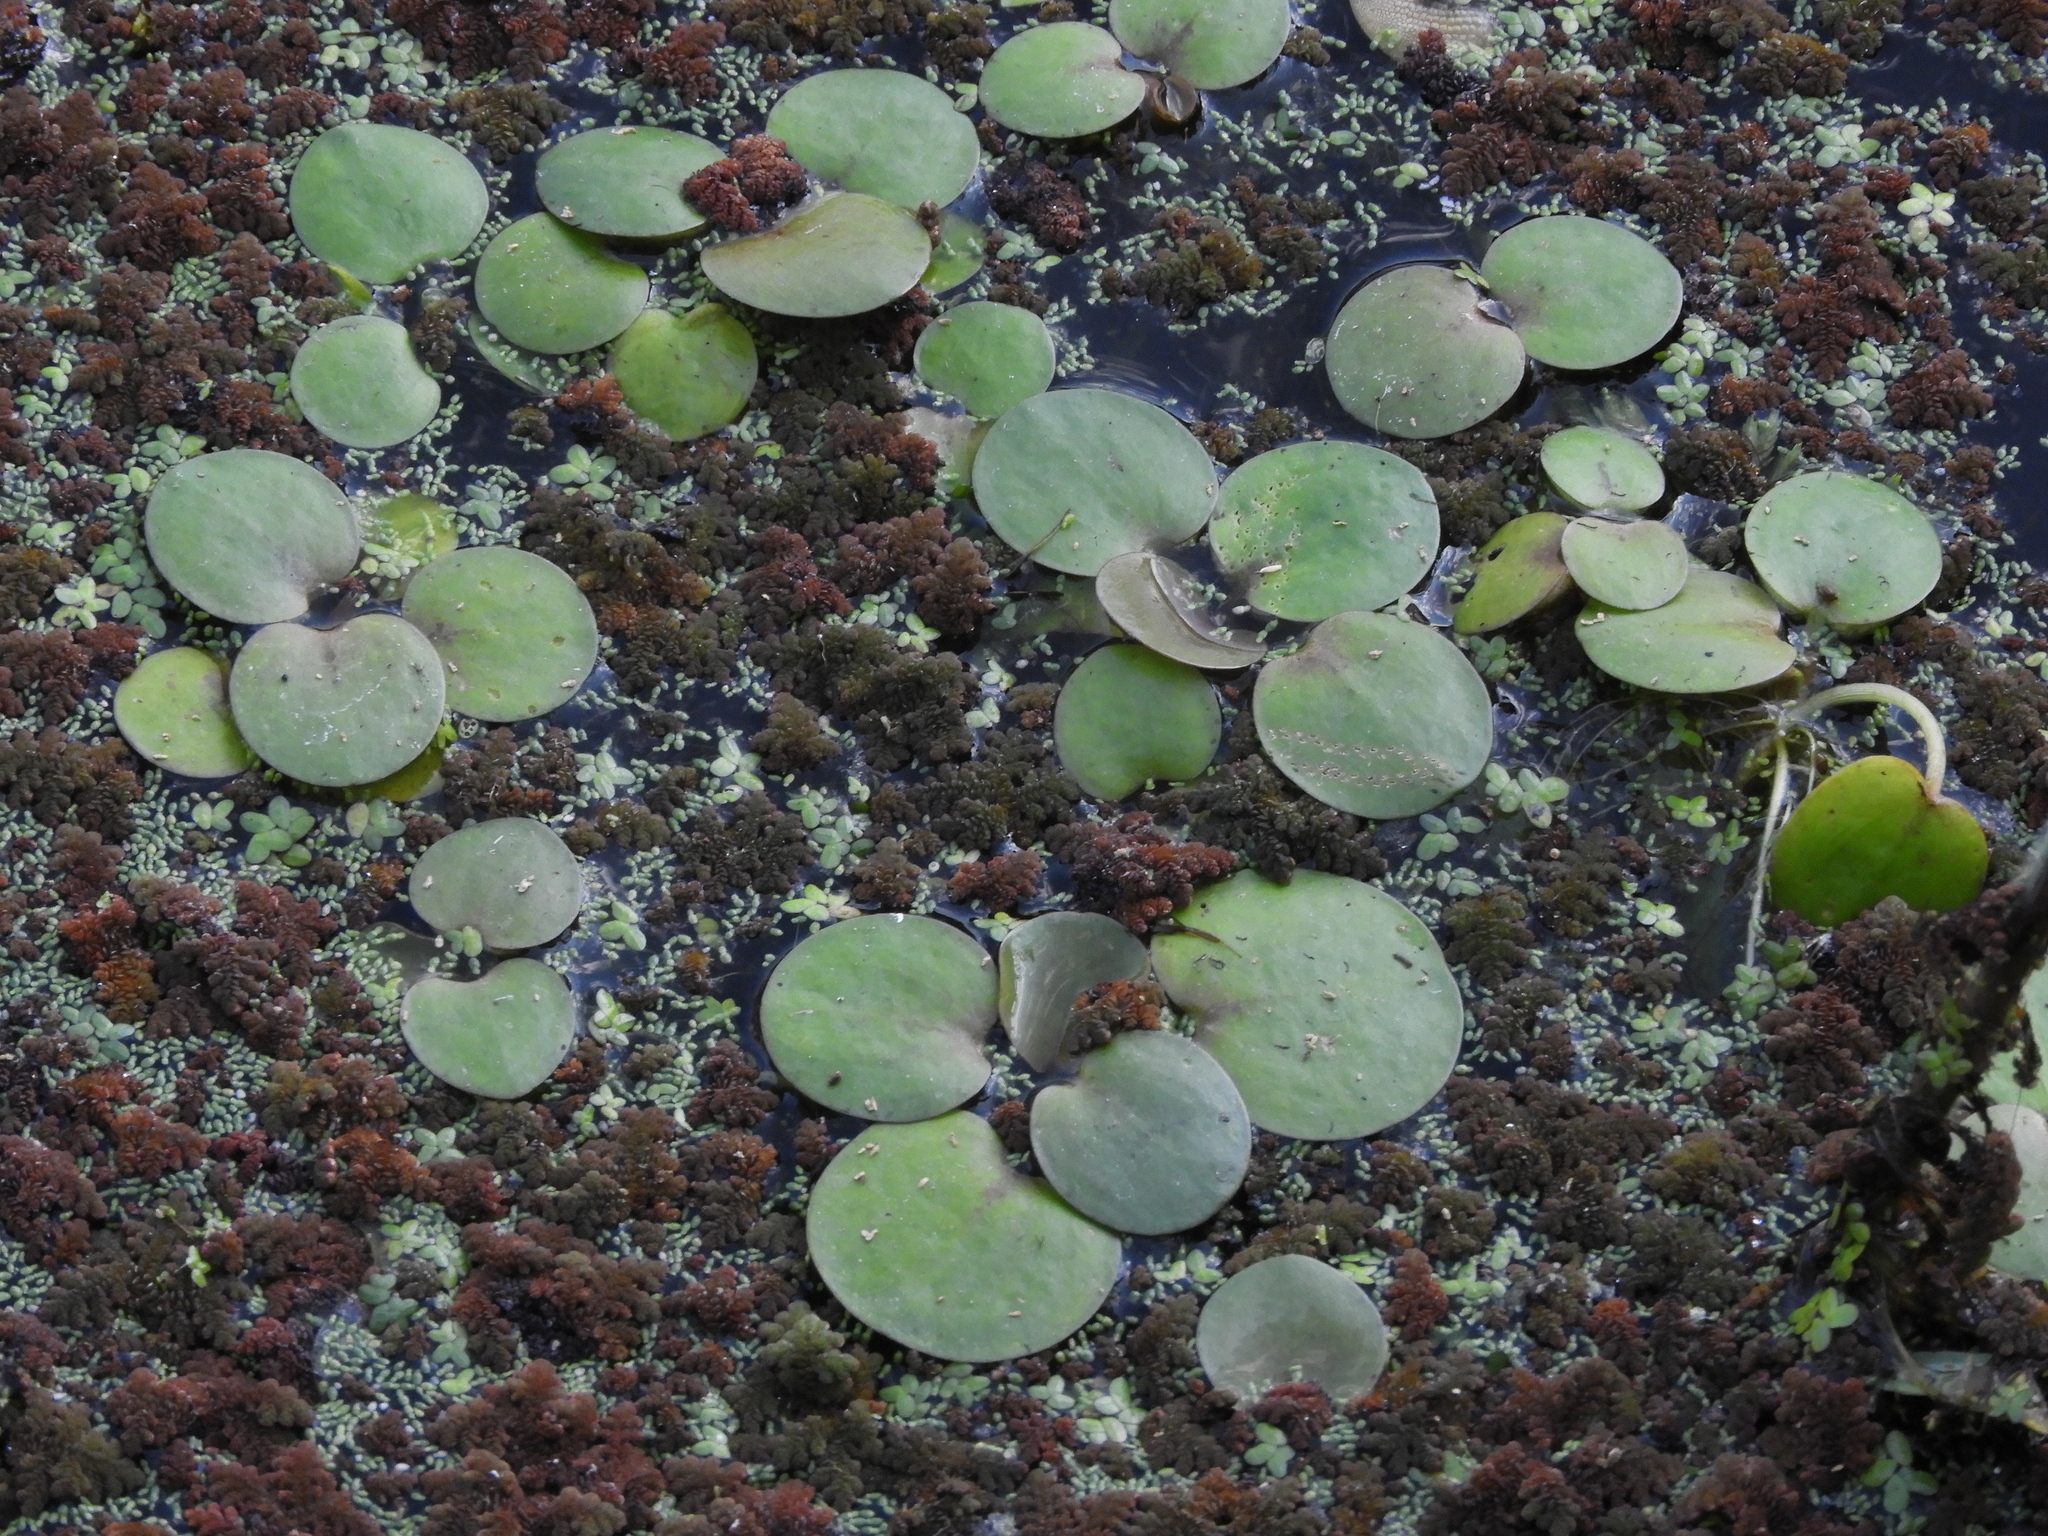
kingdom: Plantae
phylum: Tracheophyta
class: Liliopsida
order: Alismatales
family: Hydrocharitaceae
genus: Hydrocharis
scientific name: Hydrocharis laevigata
